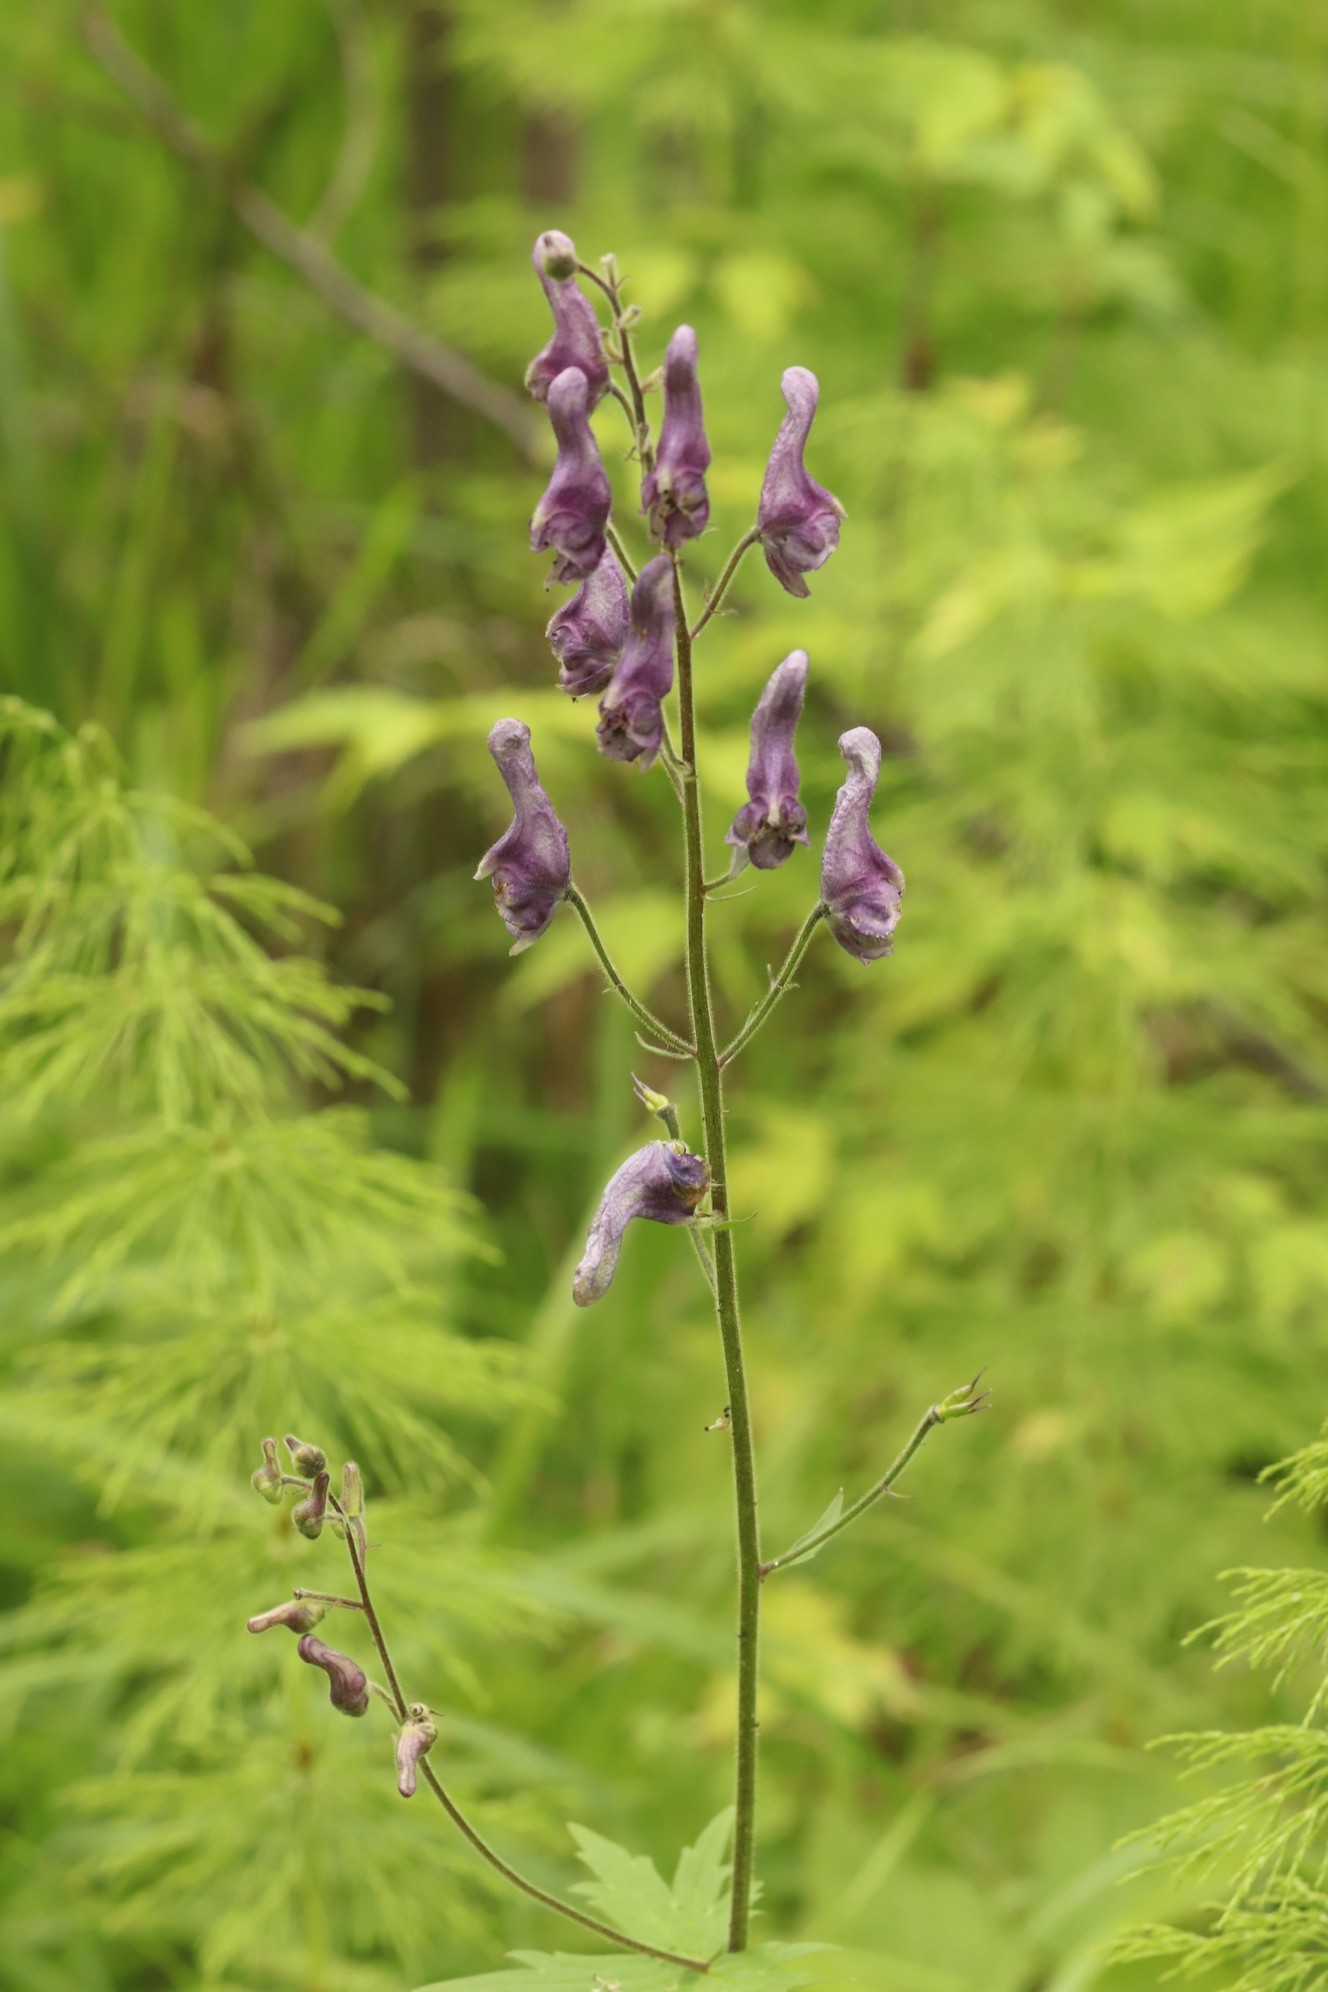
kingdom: Plantae
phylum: Tracheophyta
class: Magnoliopsida
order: Ranunculales
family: Ranunculaceae
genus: Aconitum
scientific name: Aconitum septentrionale
